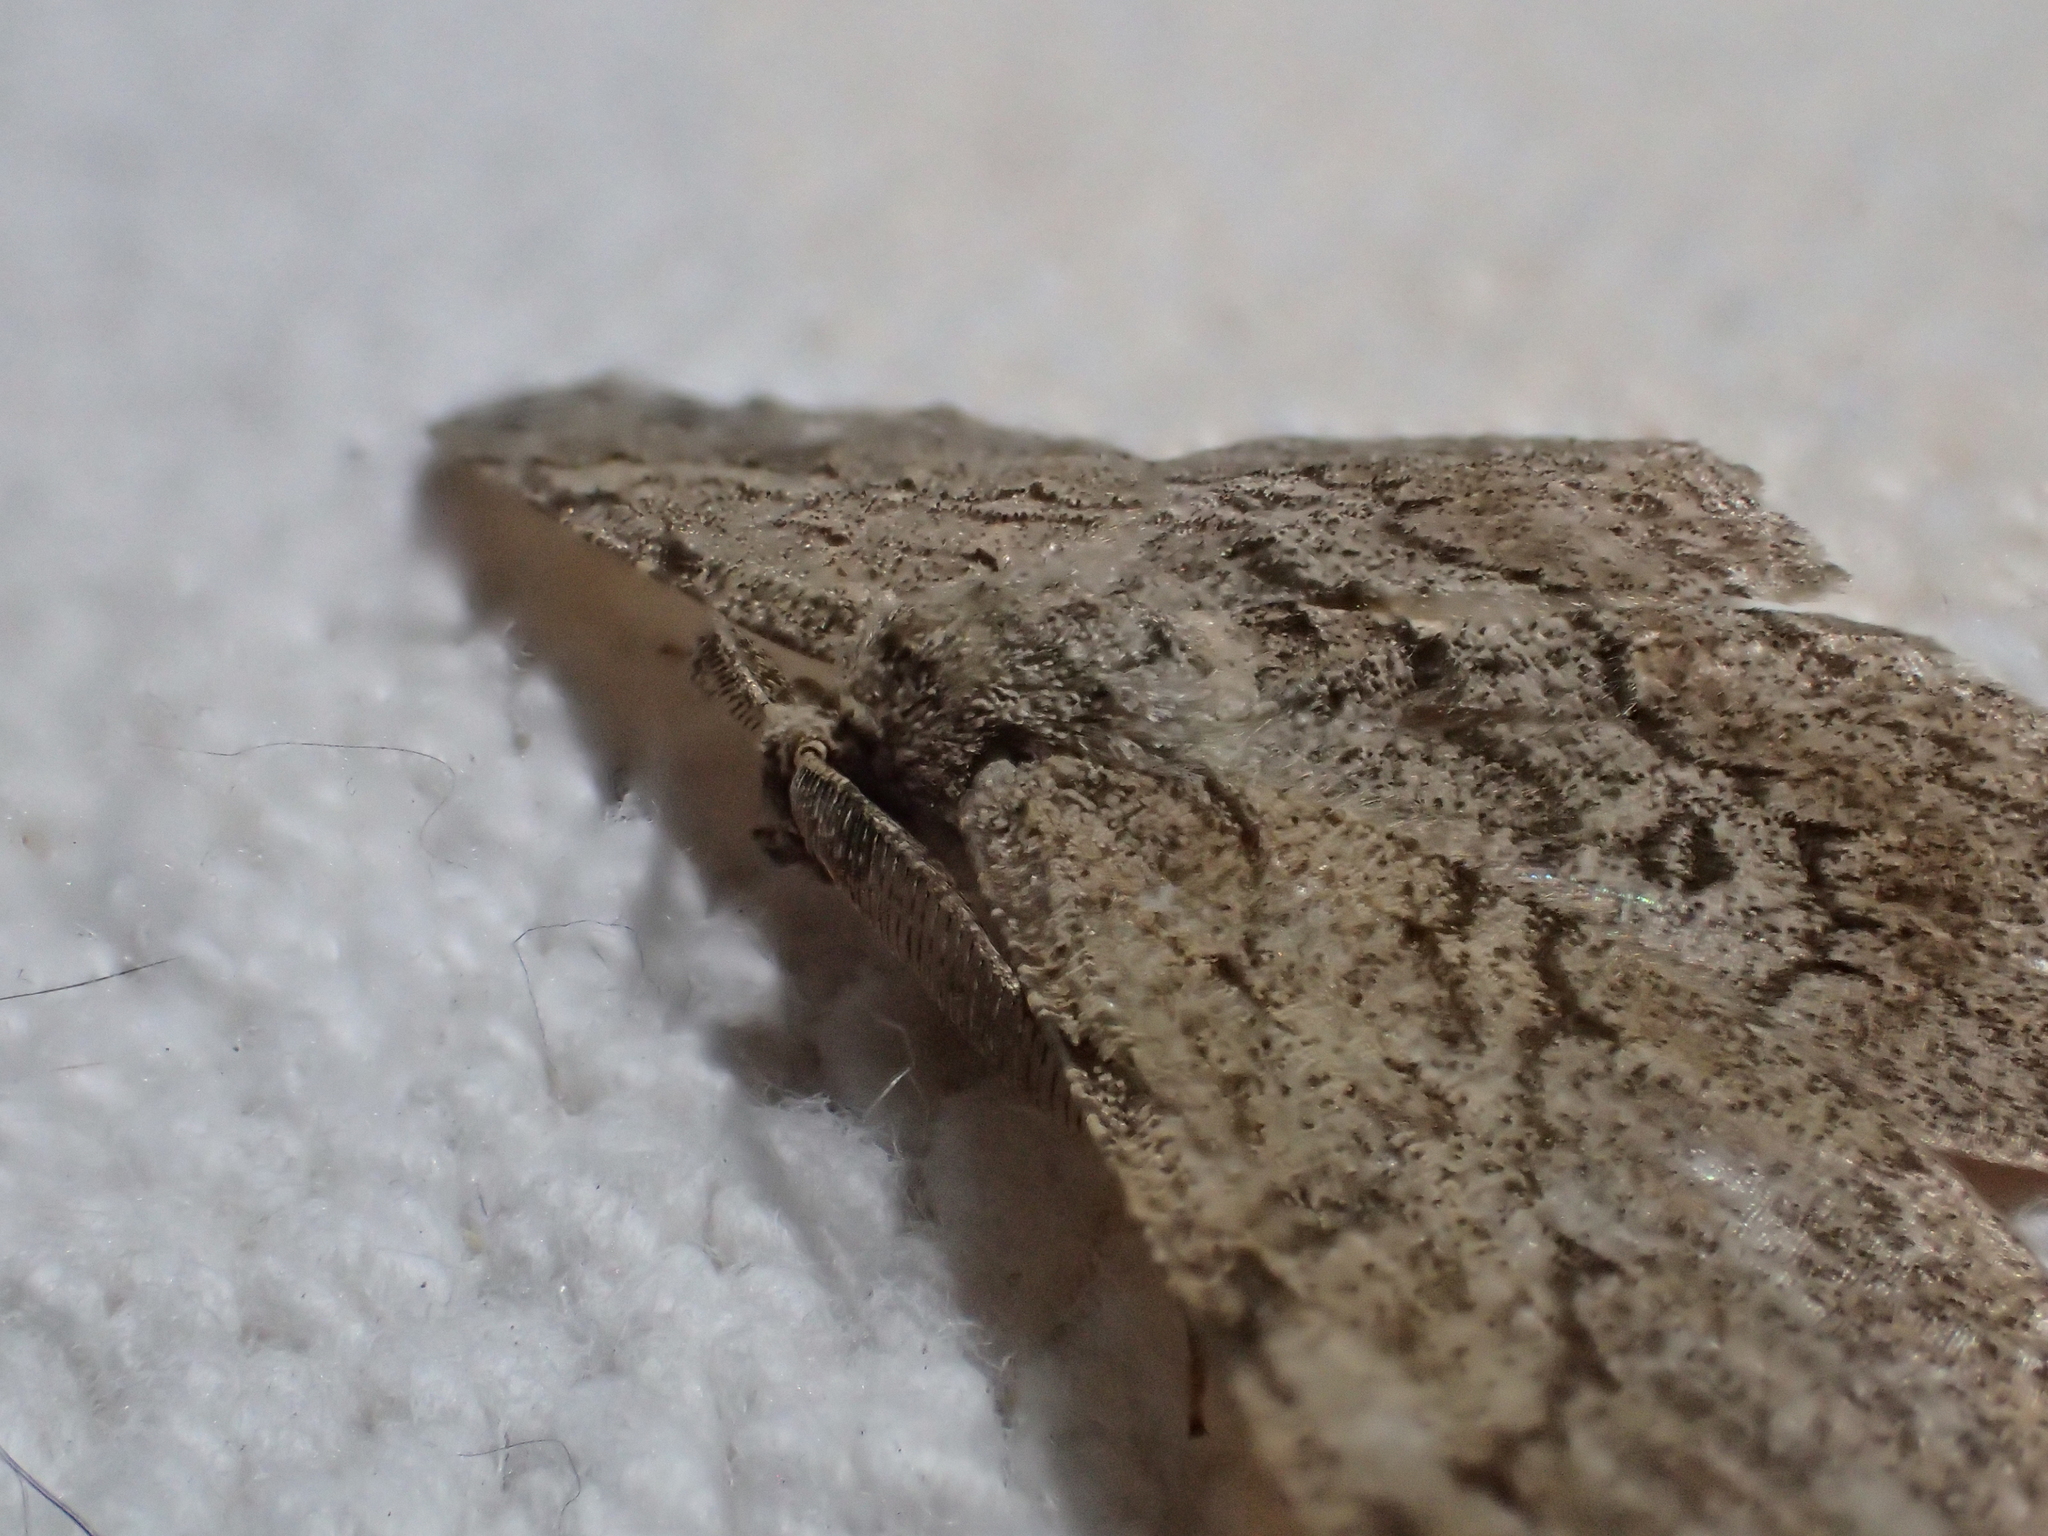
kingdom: Animalia
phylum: Arthropoda
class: Insecta
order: Lepidoptera
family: Geometridae
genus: Hypomecis
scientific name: Hypomecis punctinalis
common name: Pale oak beauty
